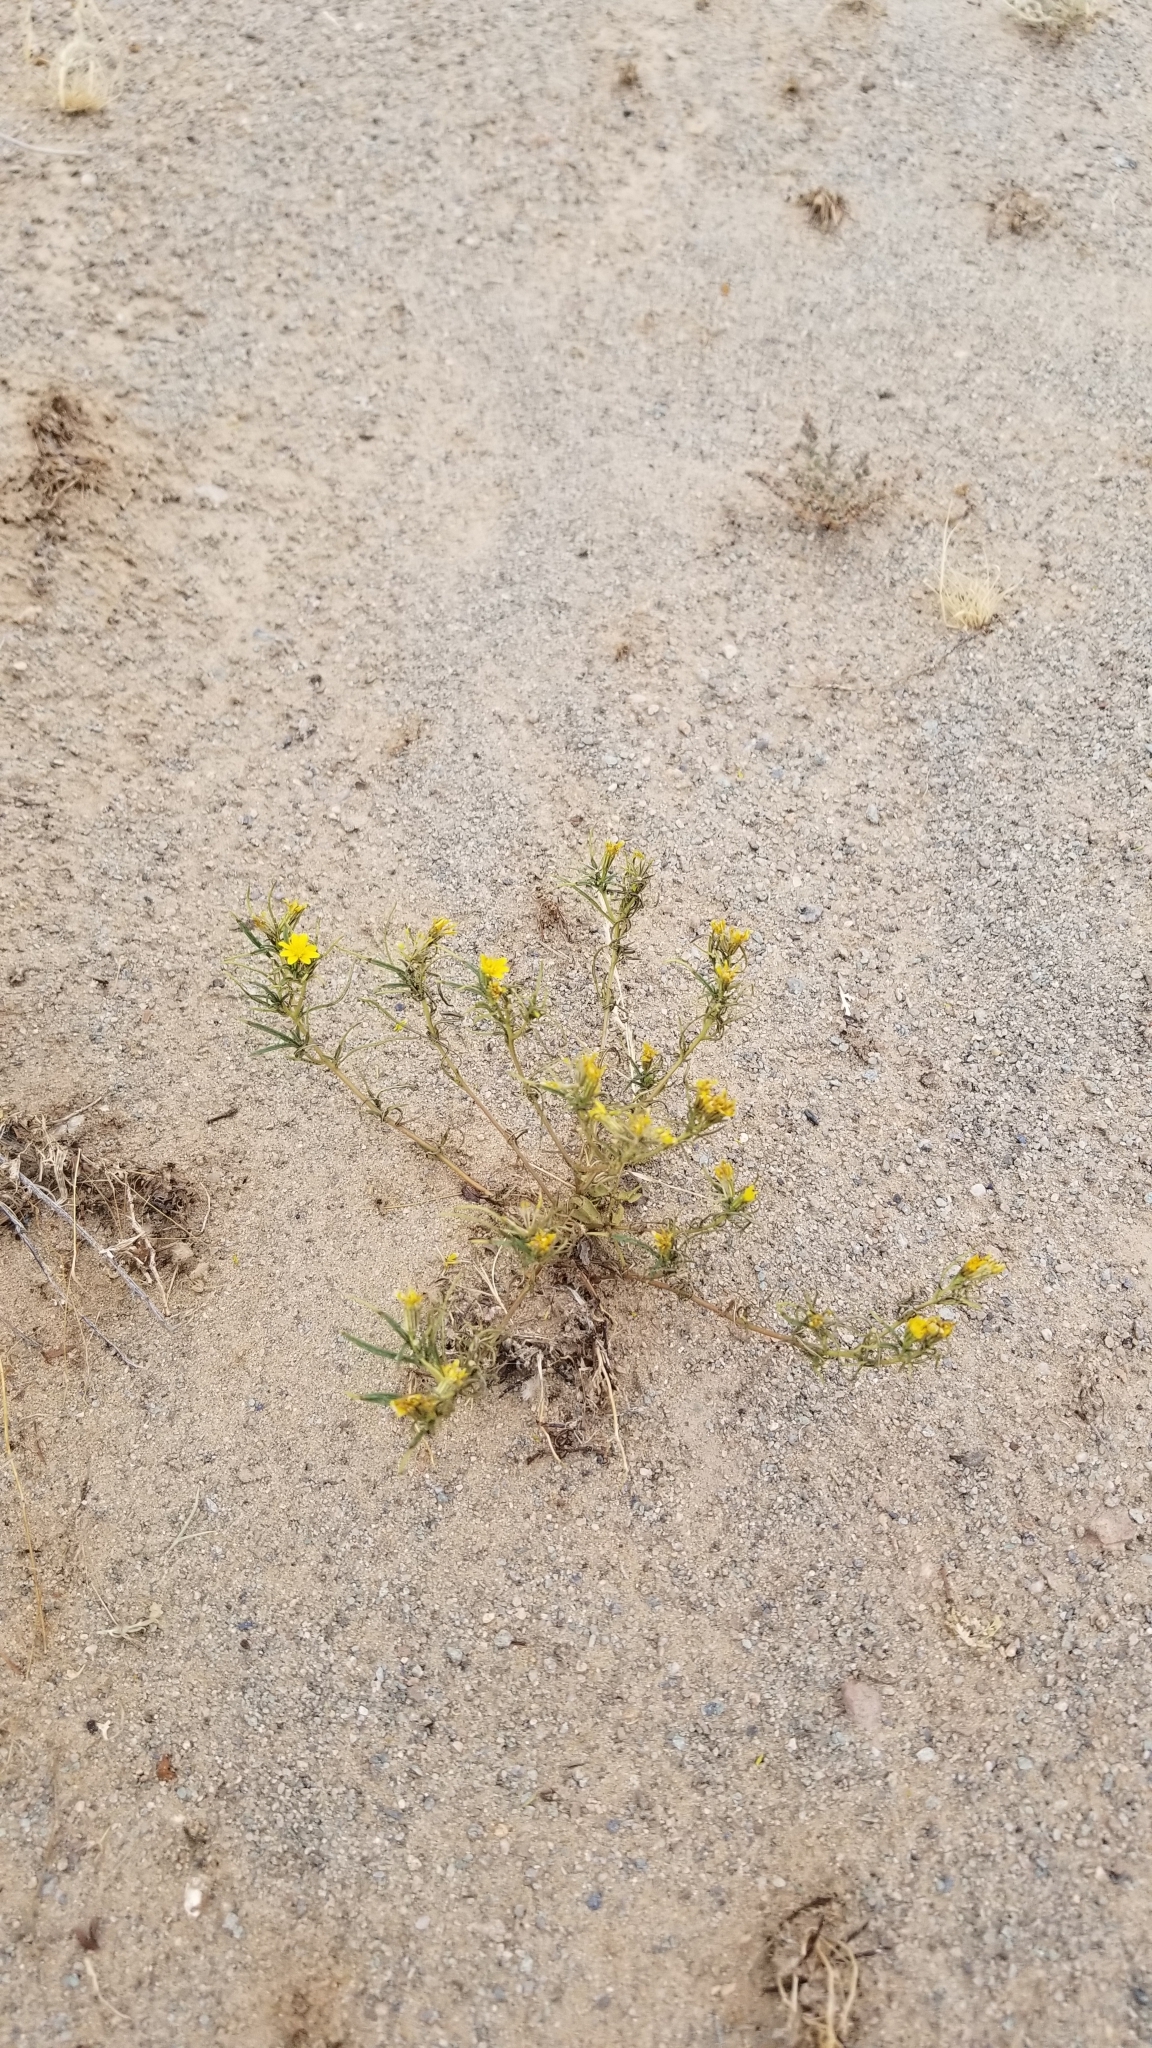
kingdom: Plantae
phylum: Tracheophyta
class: Magnoliopsida
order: Asterales
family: Asteraceae
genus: Pectis
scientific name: Pectis papposa
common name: Many-bristle chinchweed
